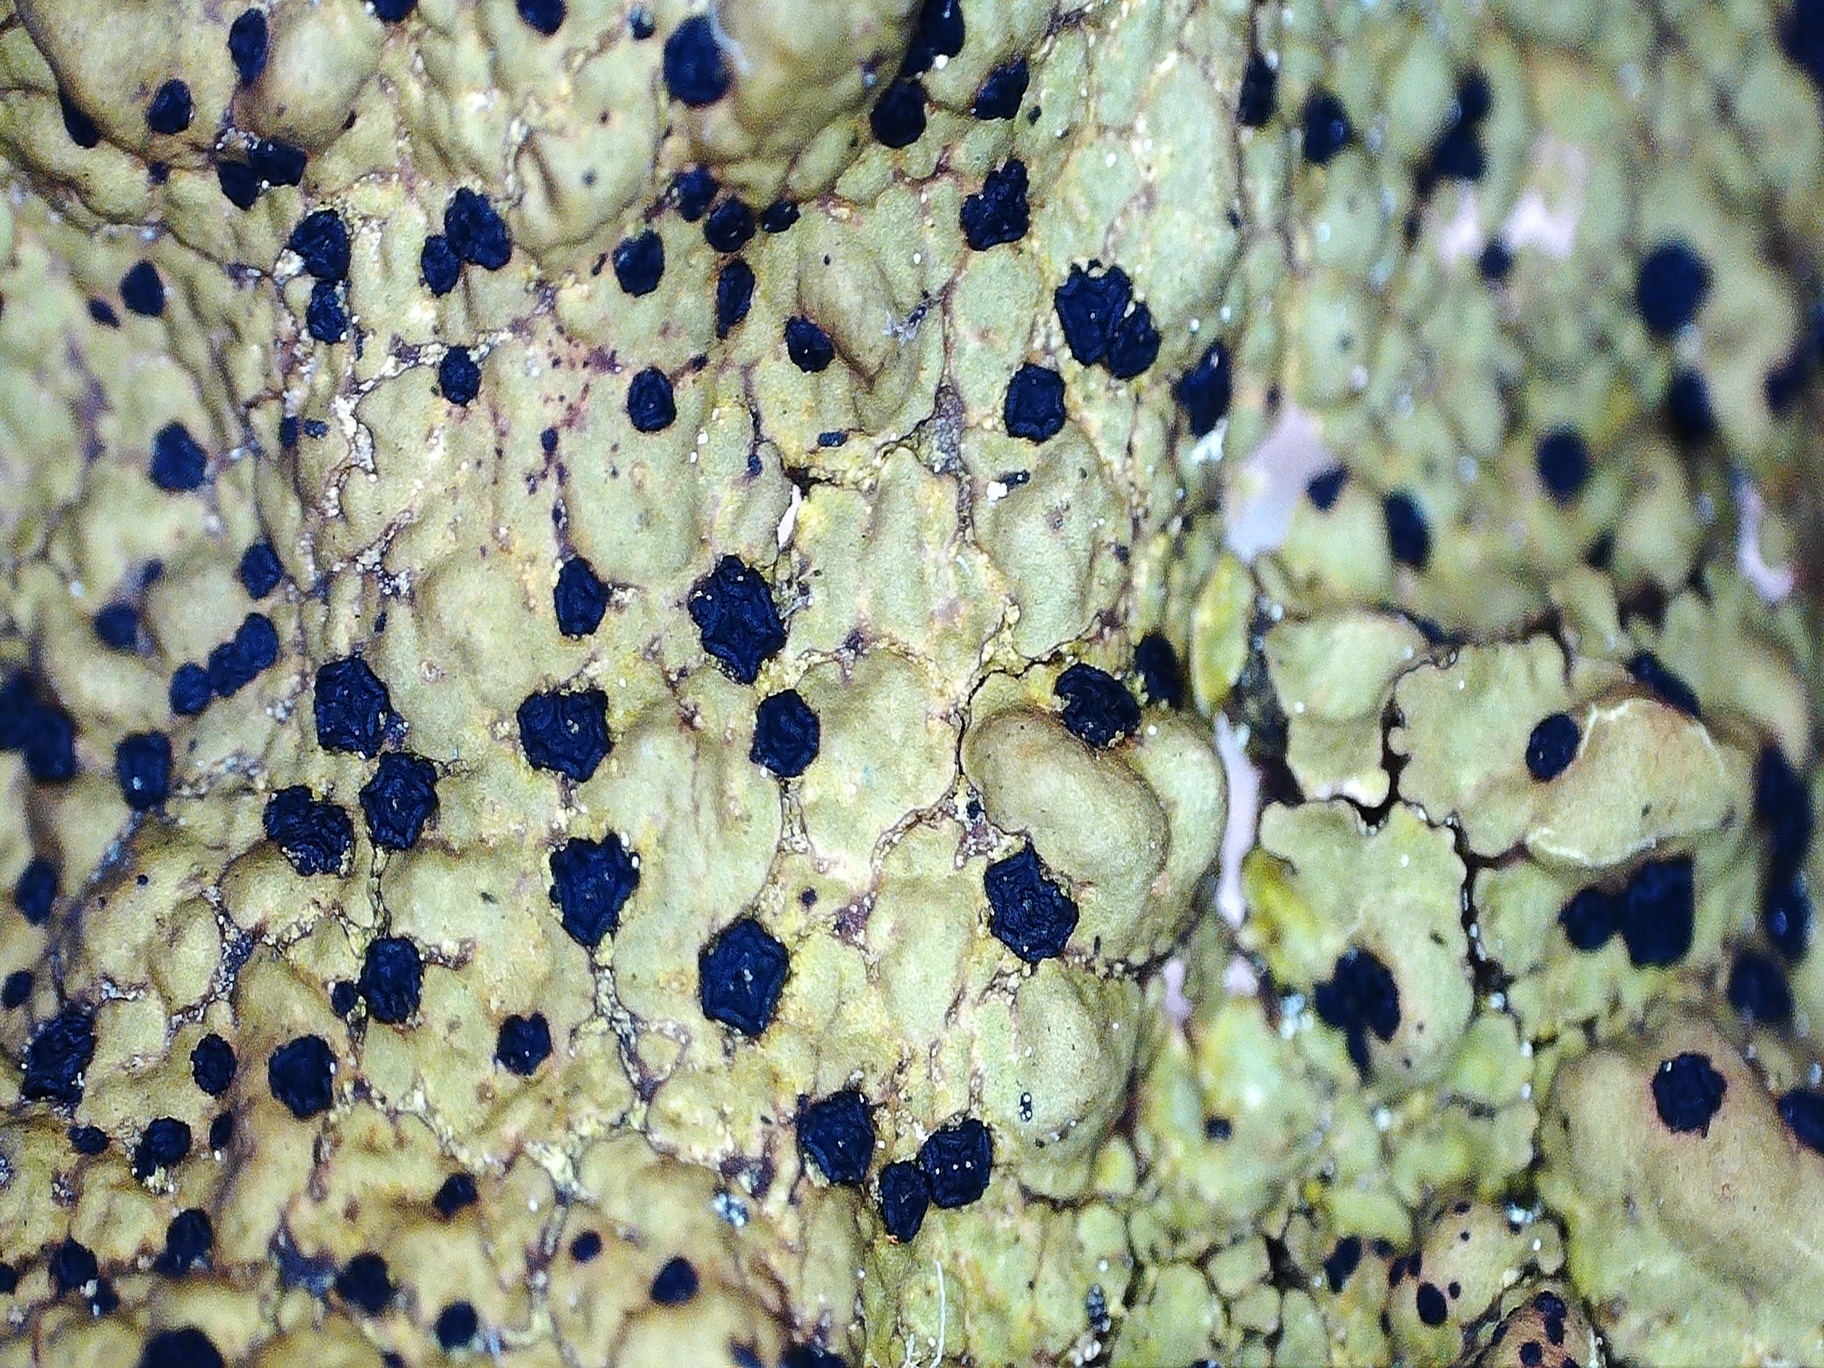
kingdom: Fungi
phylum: Ascomycota
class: Lecanoromycetes
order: Umbilicariales
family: Umbilicariaceae
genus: Umbilicaria
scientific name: Umbilicaria torrefacta
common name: Punctured rock tripe lichen
